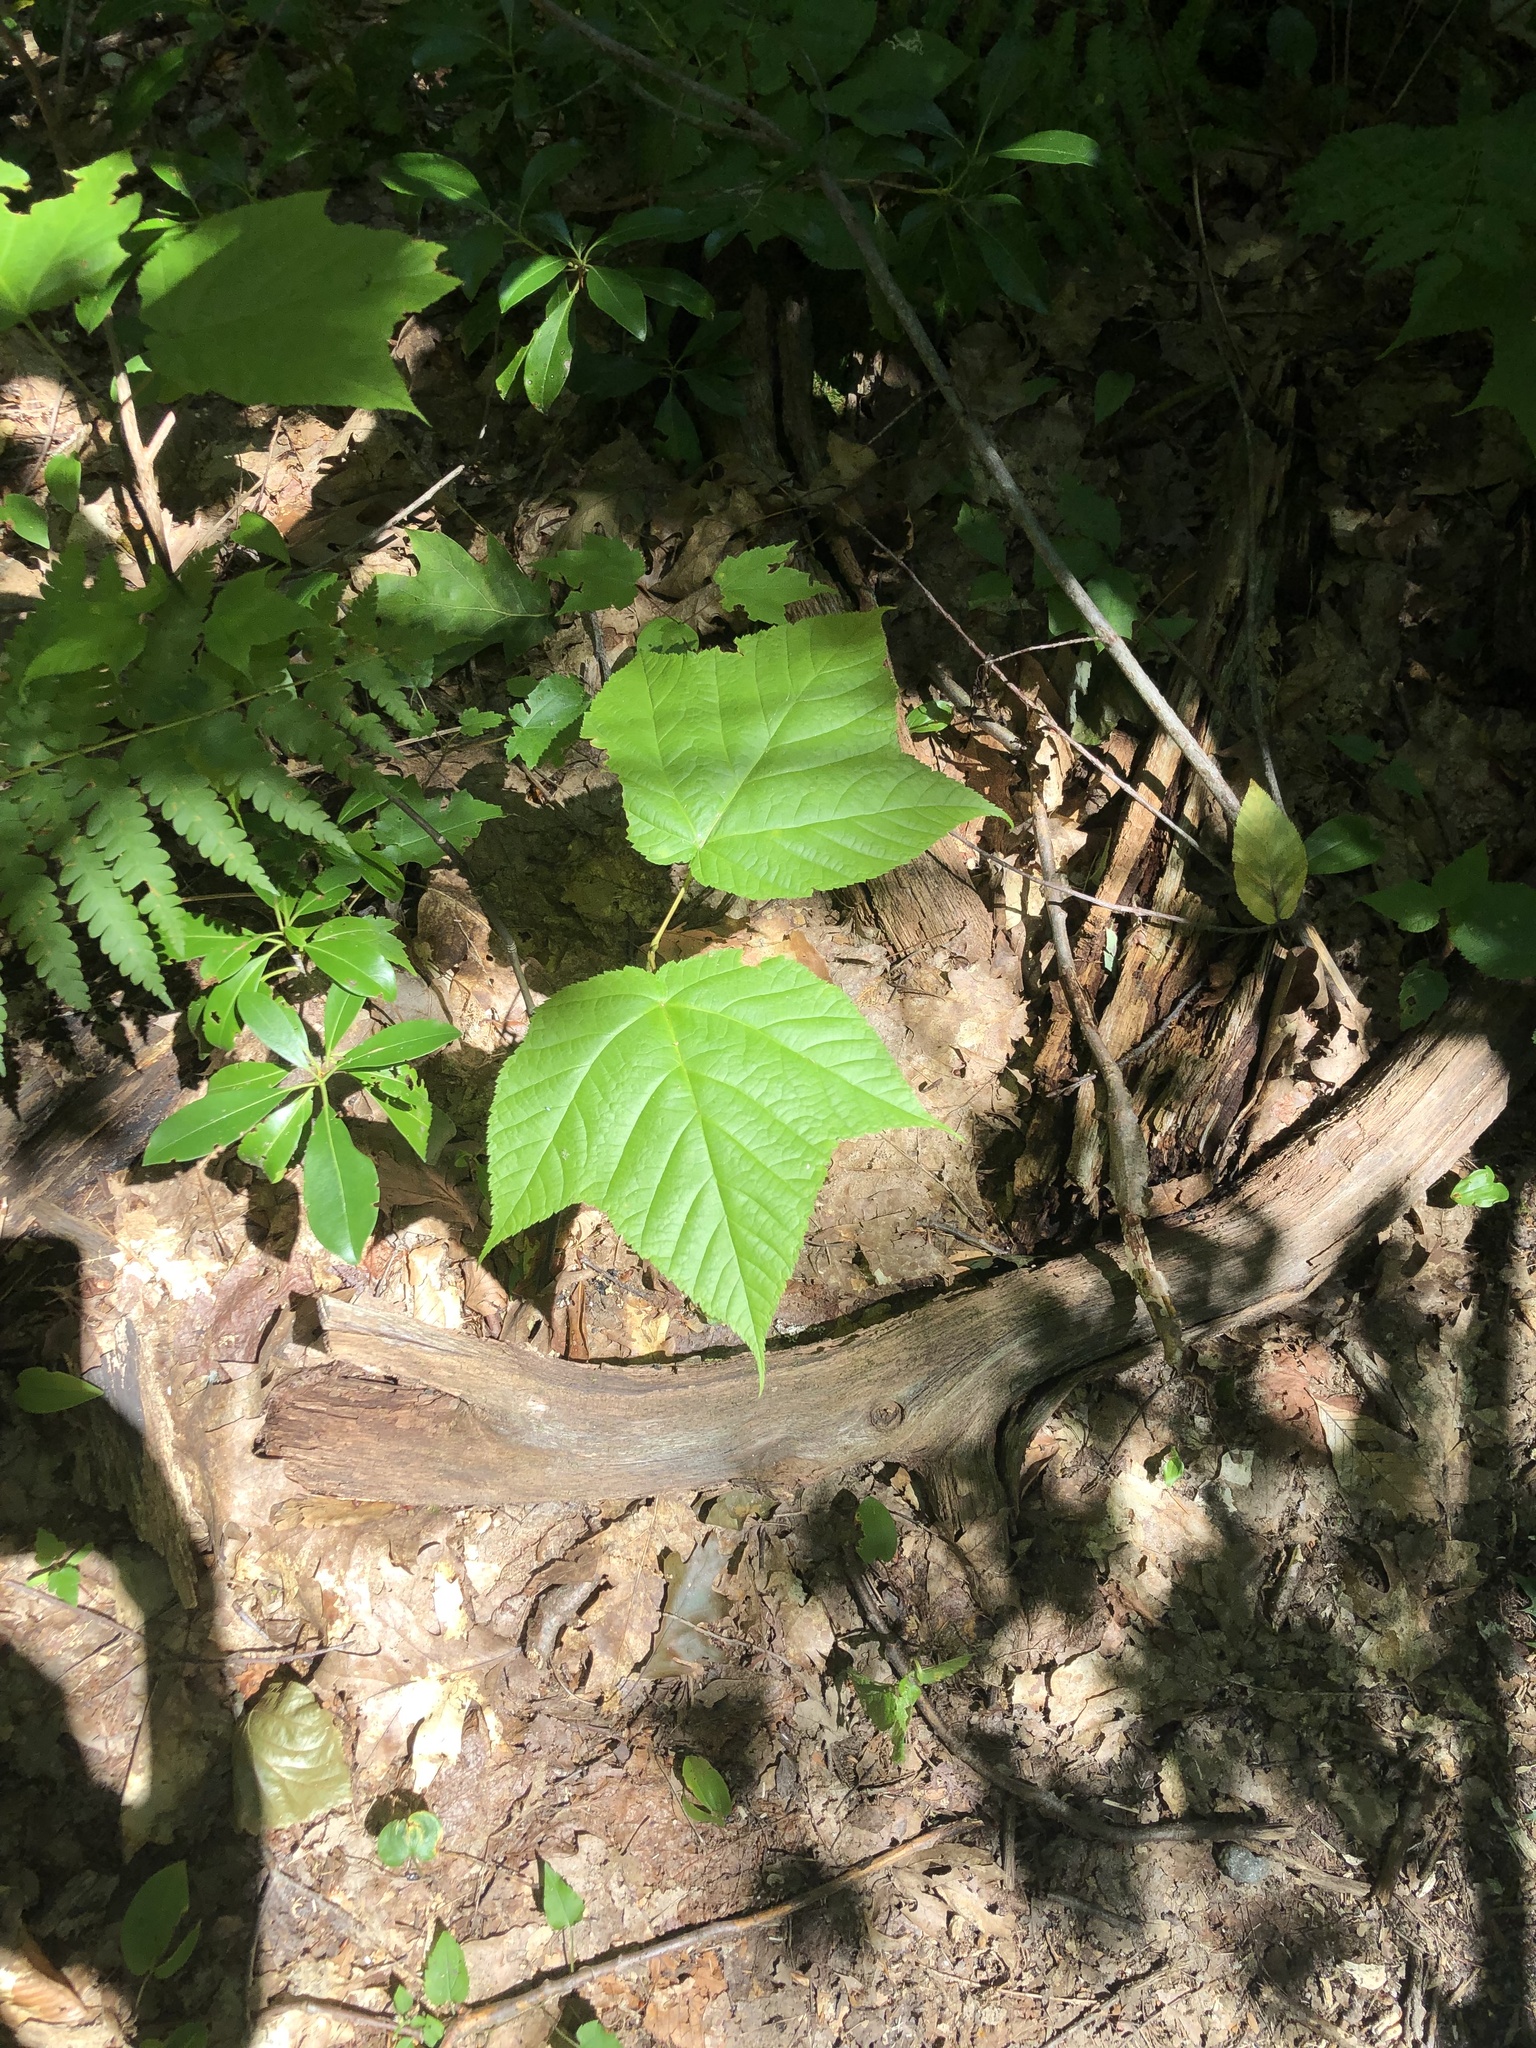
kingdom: Plantae
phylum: Tracheophyta
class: Magnoliopsida
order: Sapindales
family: Sapindaceae
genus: Acer
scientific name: Acer pensylvanicum
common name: Moosewood
